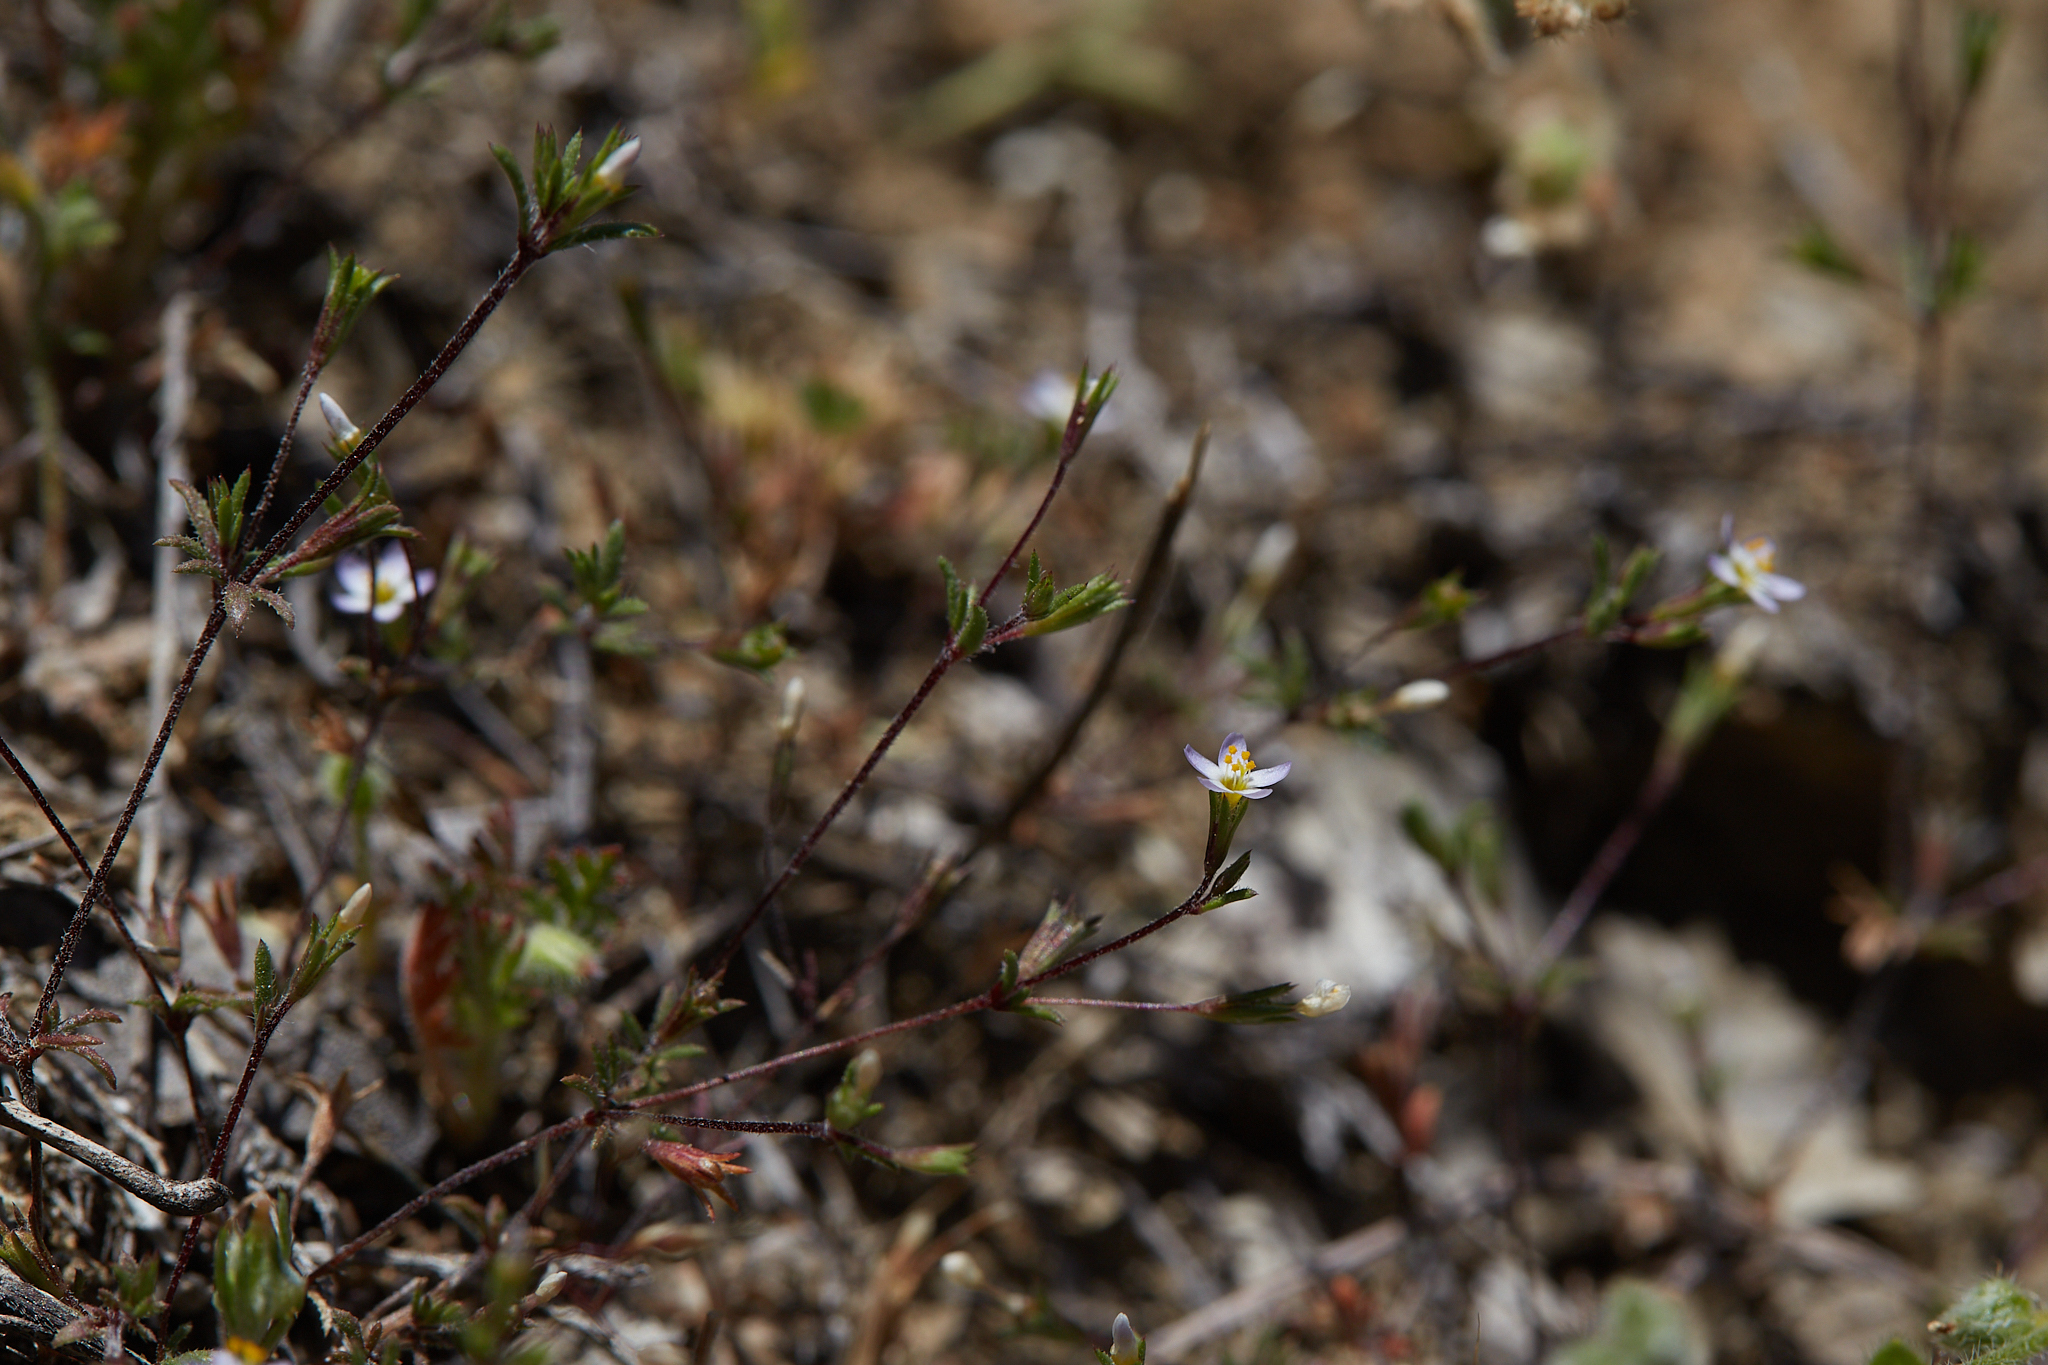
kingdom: Plantae
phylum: Tracheophyta
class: Magnoliopsida
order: Ericales
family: Polemoniaceae
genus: Leptosiphon
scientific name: Leptosiphon pygmaeus
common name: Pygmy linanthus
